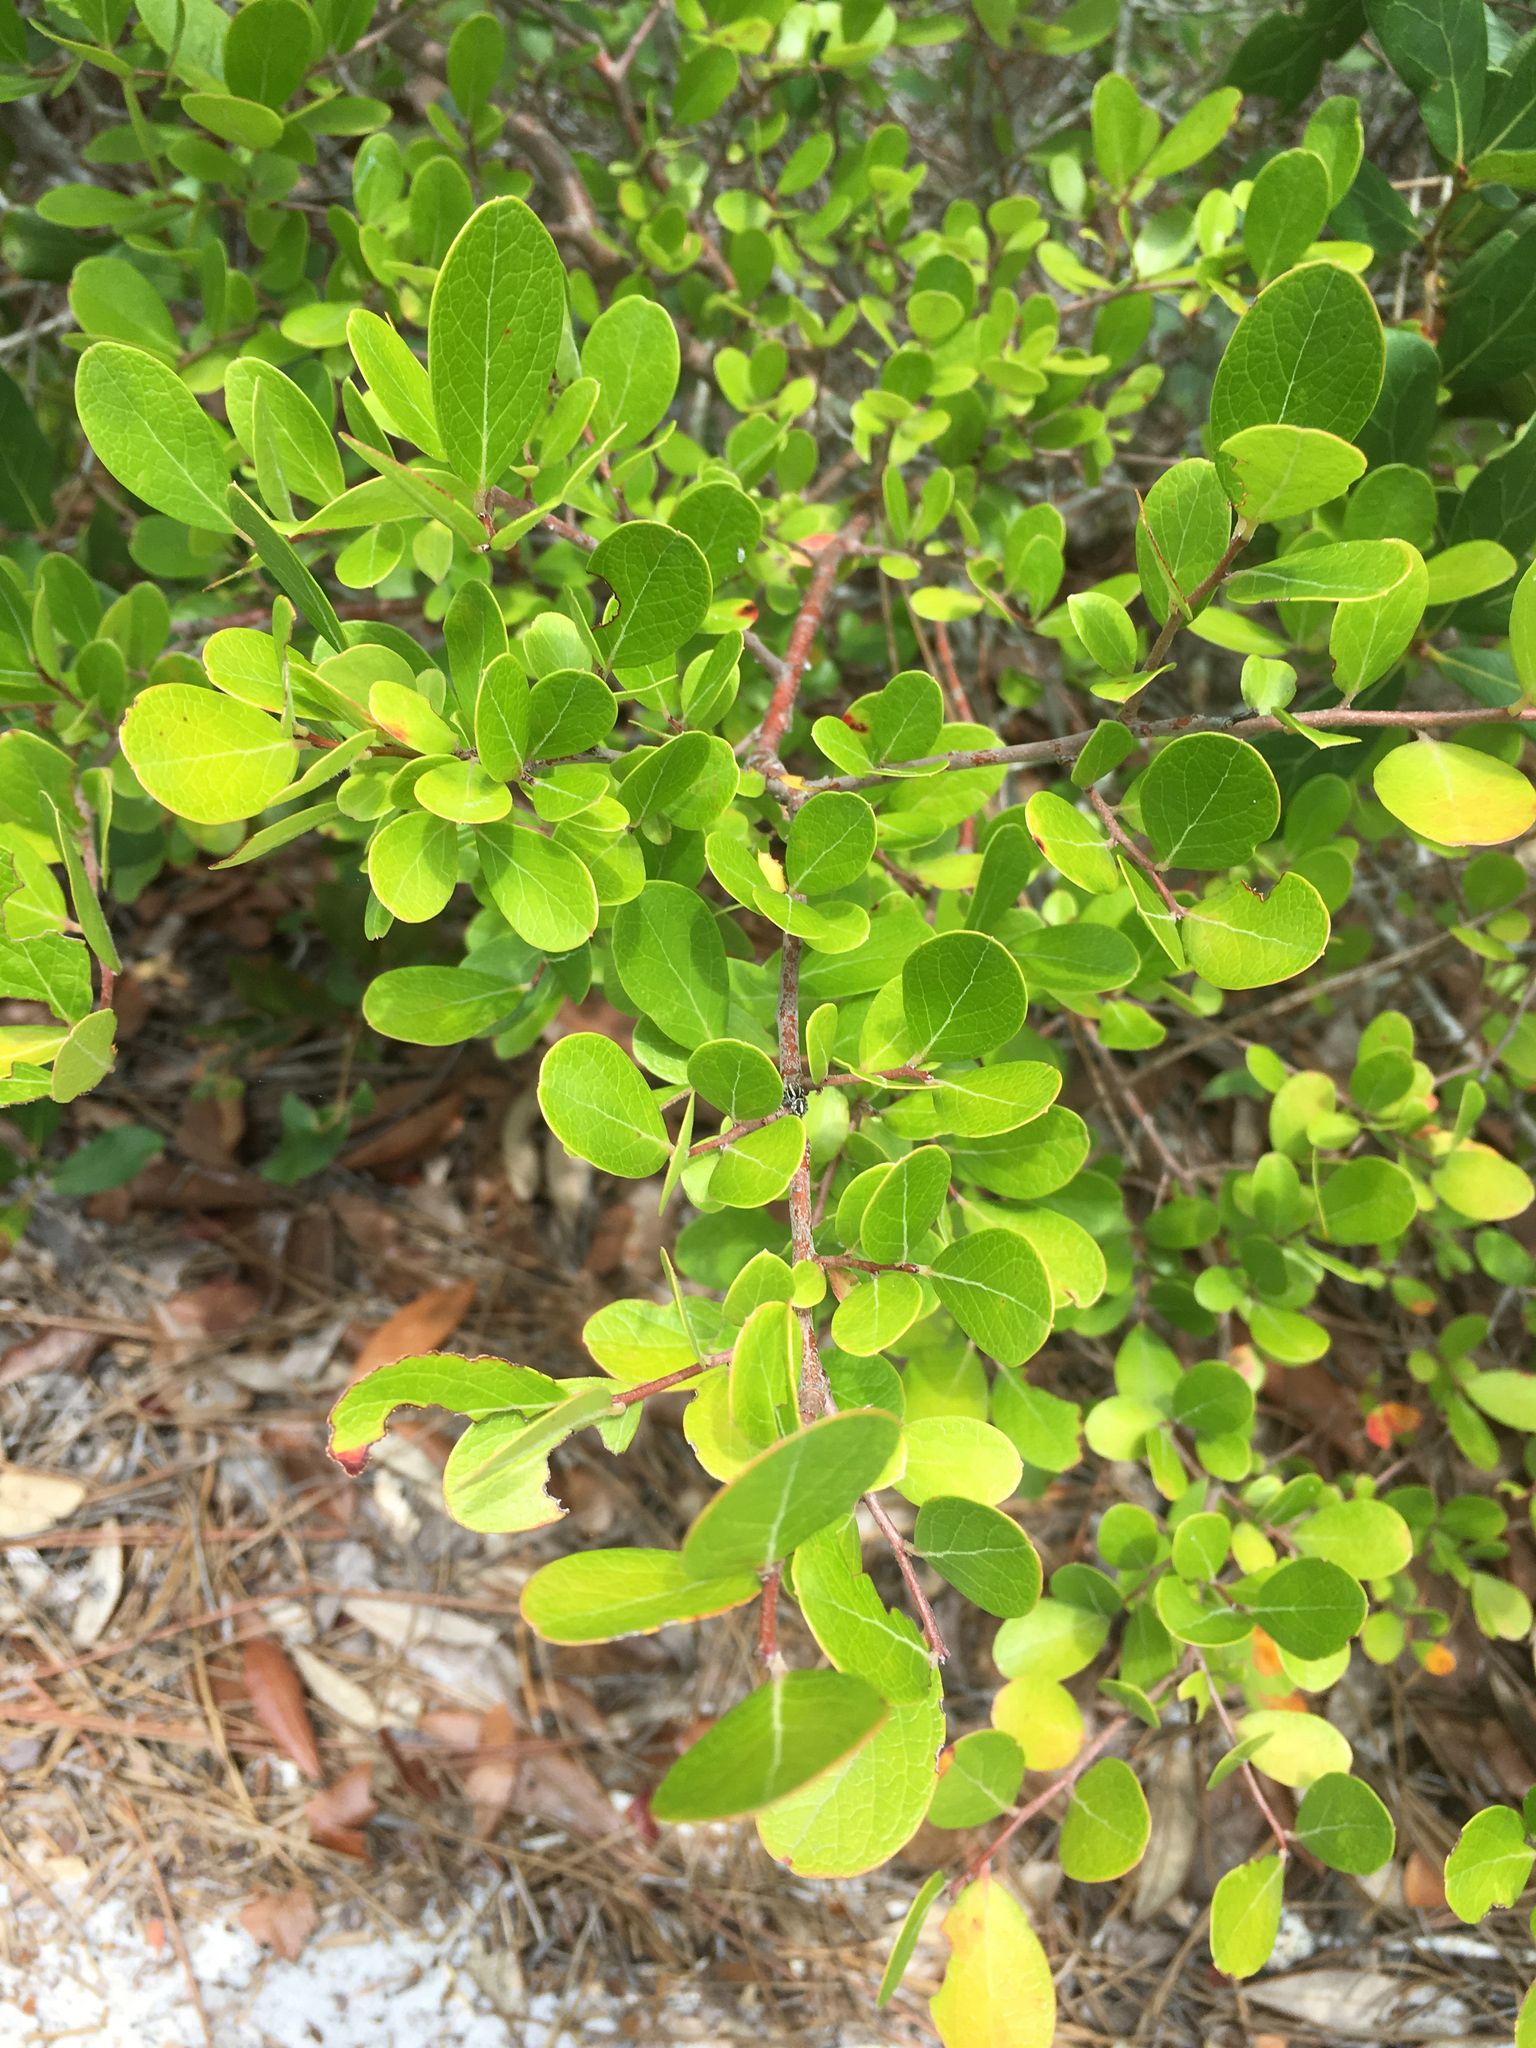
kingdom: Plantae
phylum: Tracheophyta
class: Magnoliopsida
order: Ericales
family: Ericaceae
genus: Vaccinium
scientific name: Vaccinium arboreum
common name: Farkleberry
